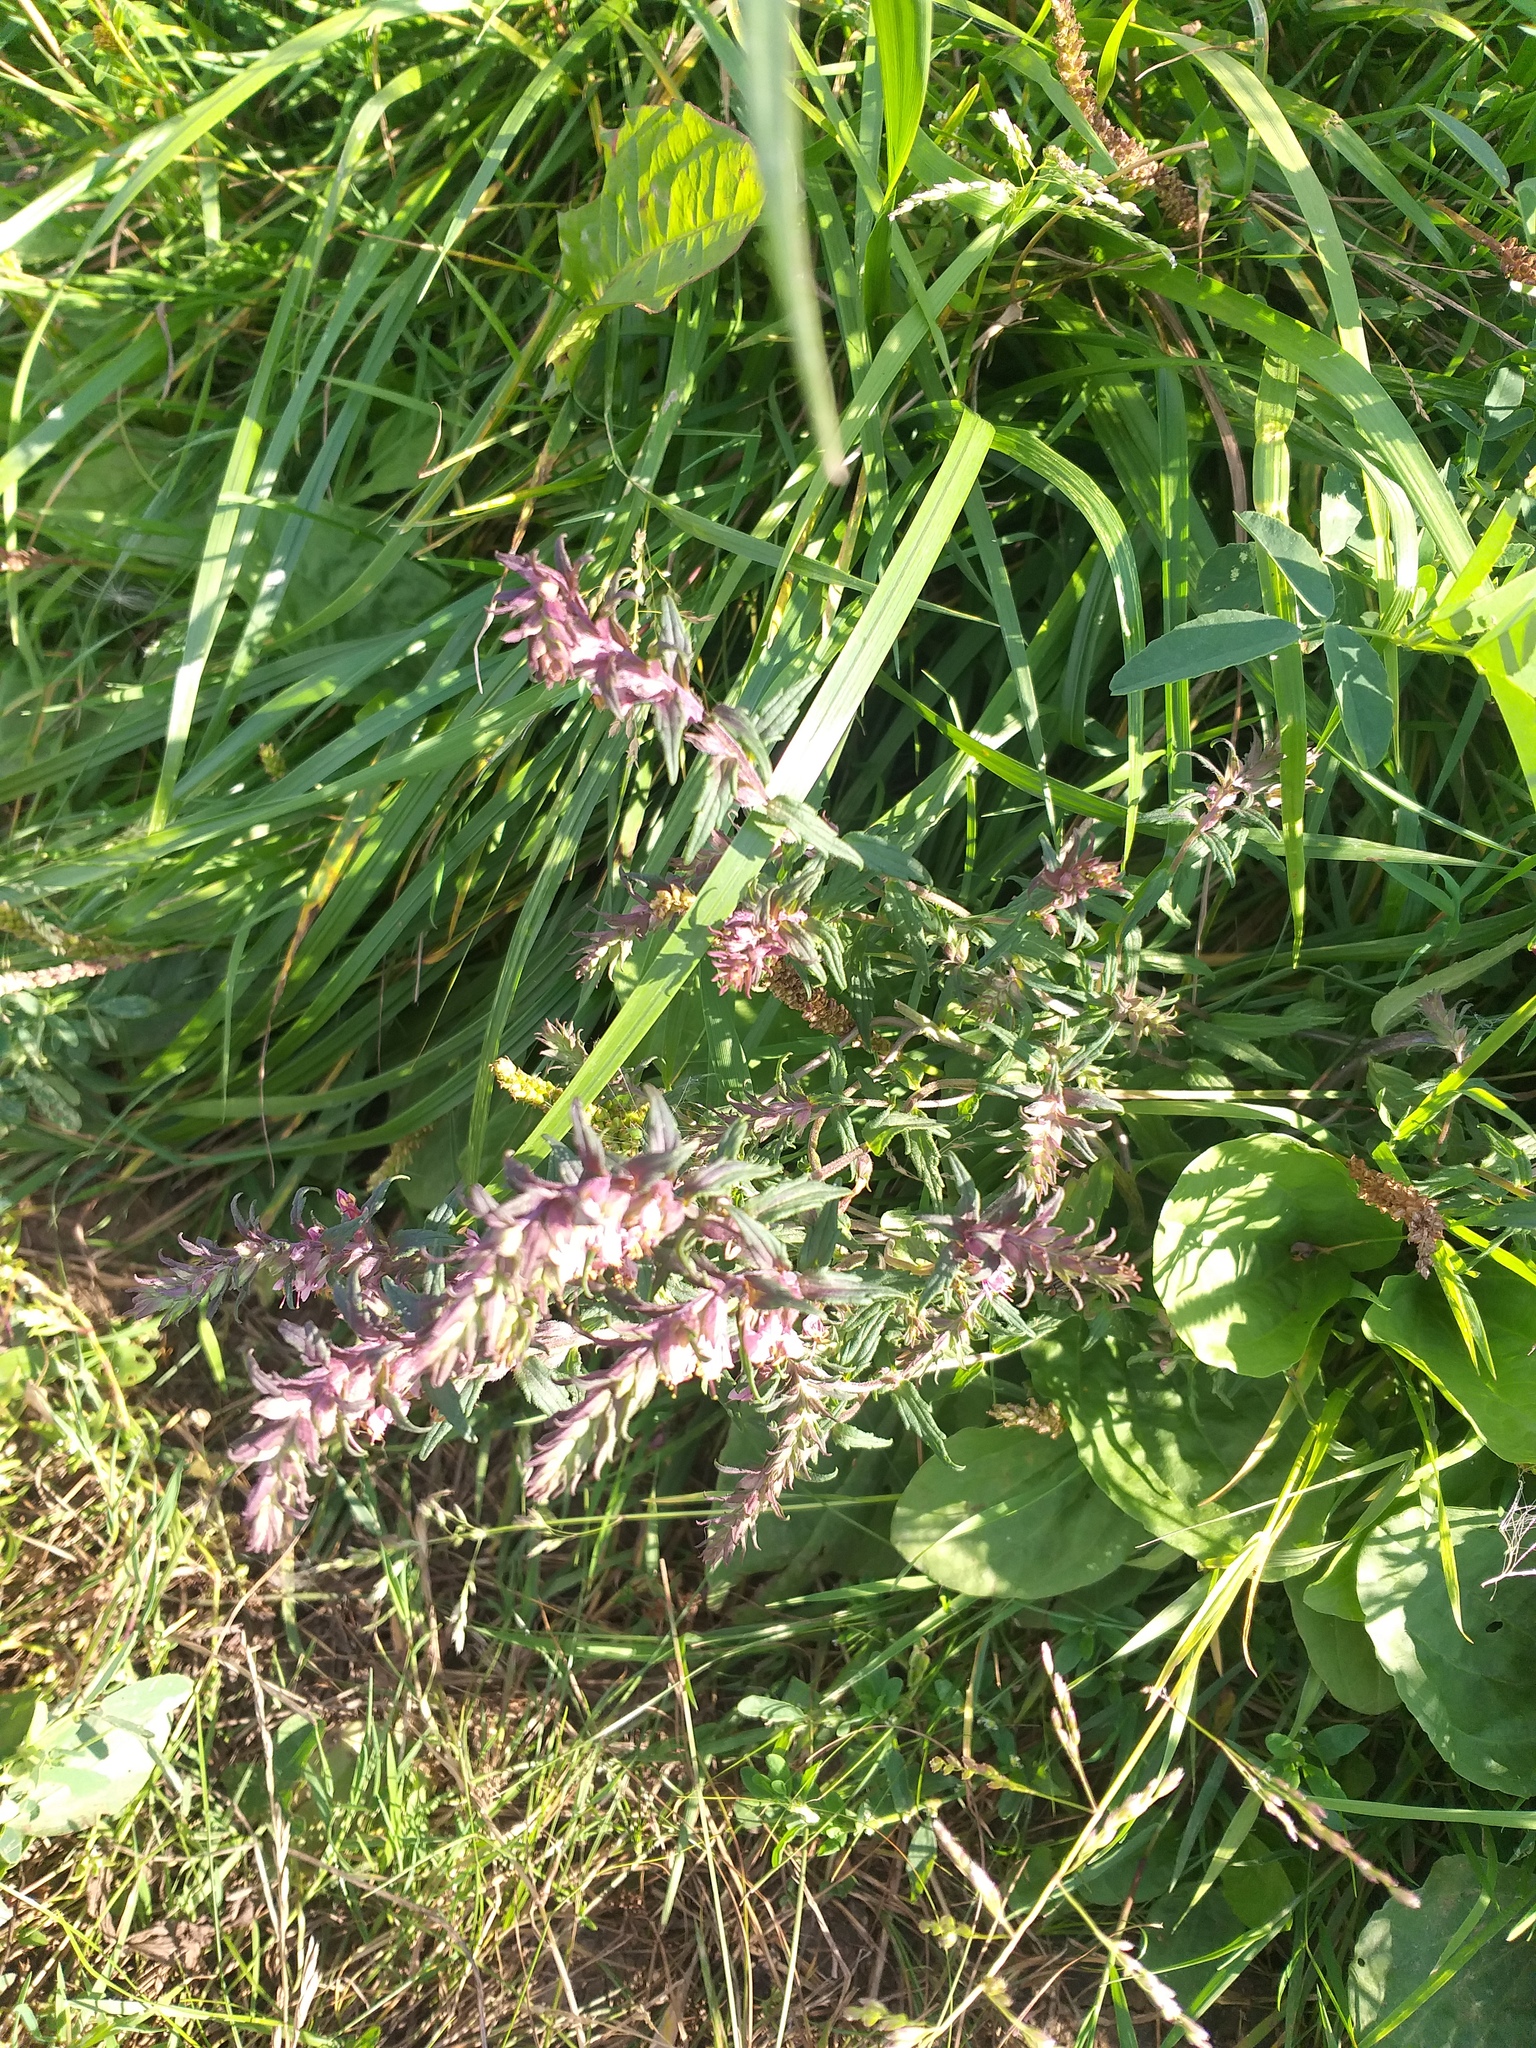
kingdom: Plantae
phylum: Tracheophyta
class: Magnoliopsida
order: Lamiales
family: Orobanchaceae
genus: Odontites
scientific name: Odontites vulgaris
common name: Broomrape
